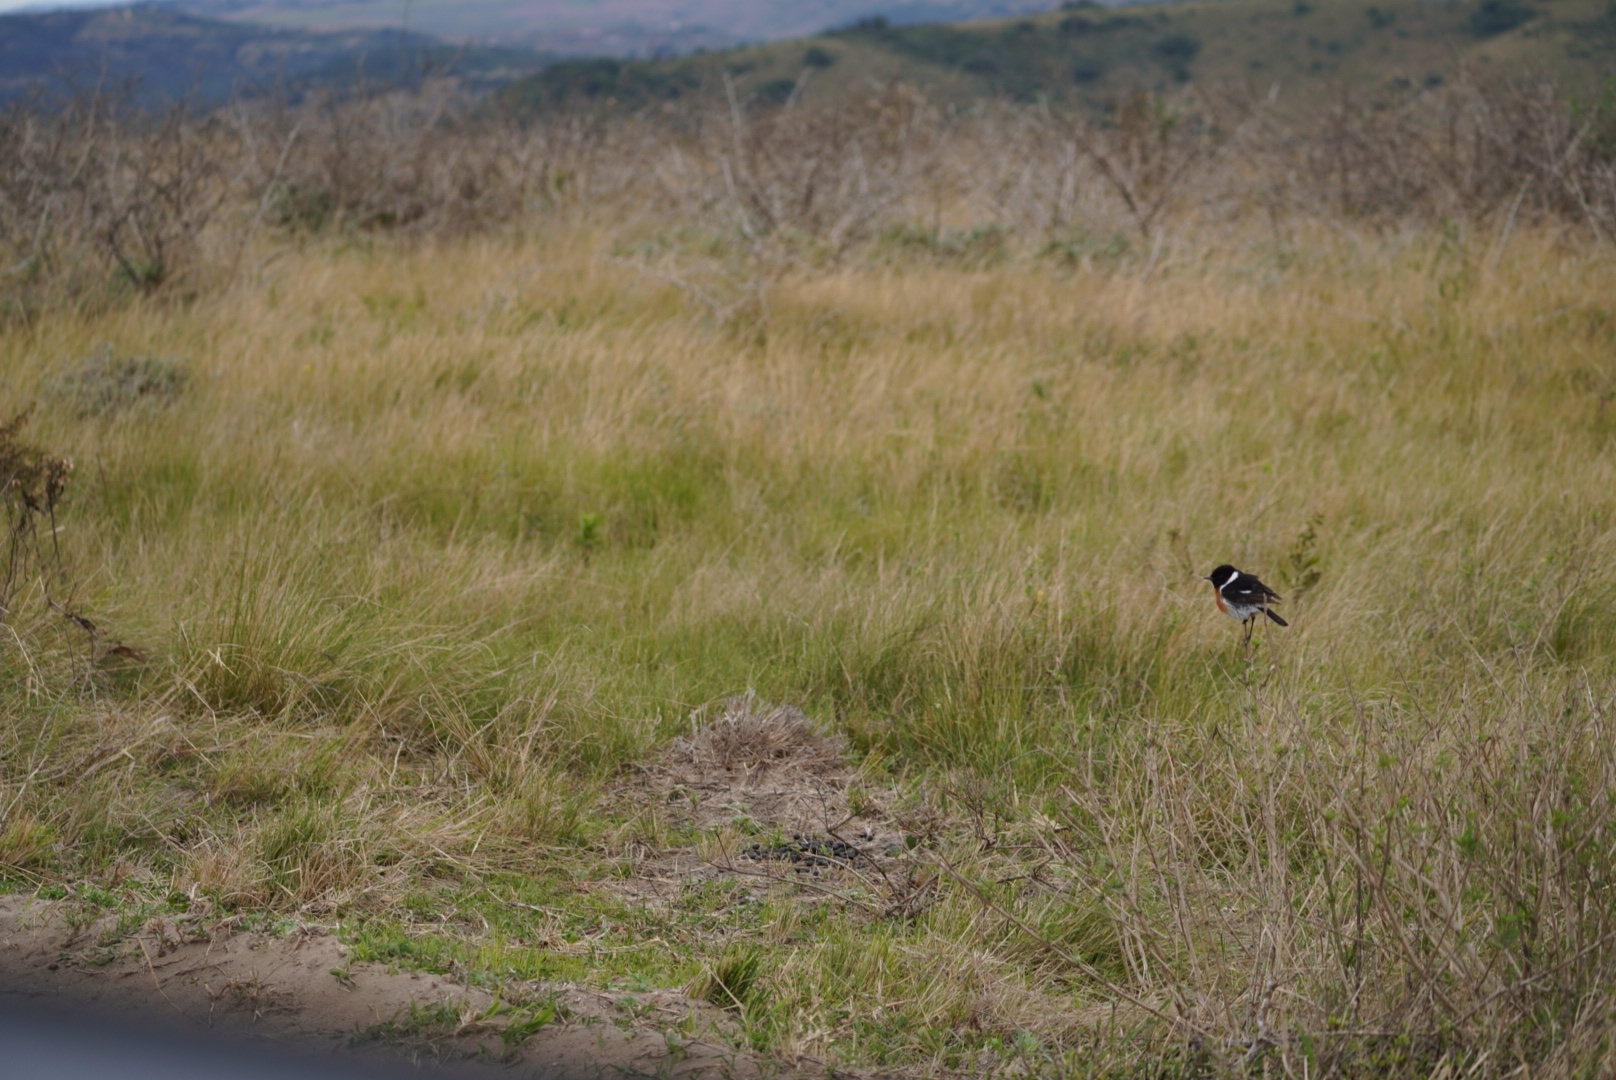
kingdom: Animalia
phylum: Chordata
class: Aves
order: Passeriformes
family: Muscicapidae
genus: Saxicola
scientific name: Saxicola torquatus
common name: African stonechat
